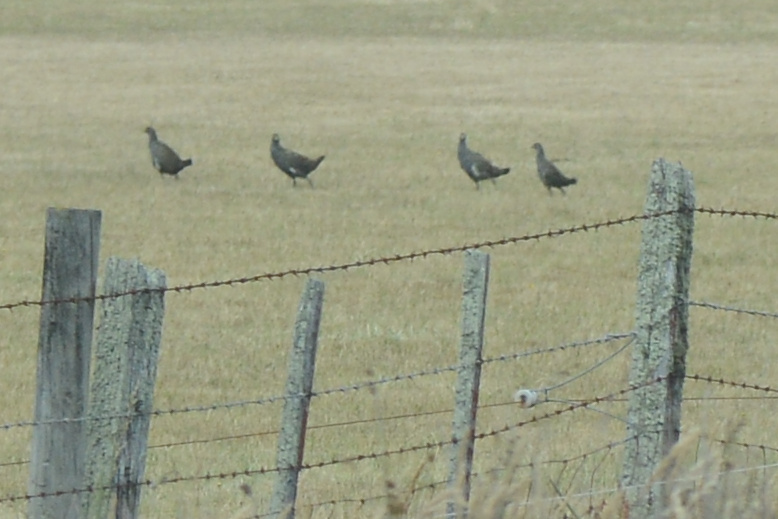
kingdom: Animalia
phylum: Chordata
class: Aves
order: Gruiformes
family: Rallidae
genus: Gallinula
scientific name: Gallinula mortierii
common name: Tasmanian nativehen
